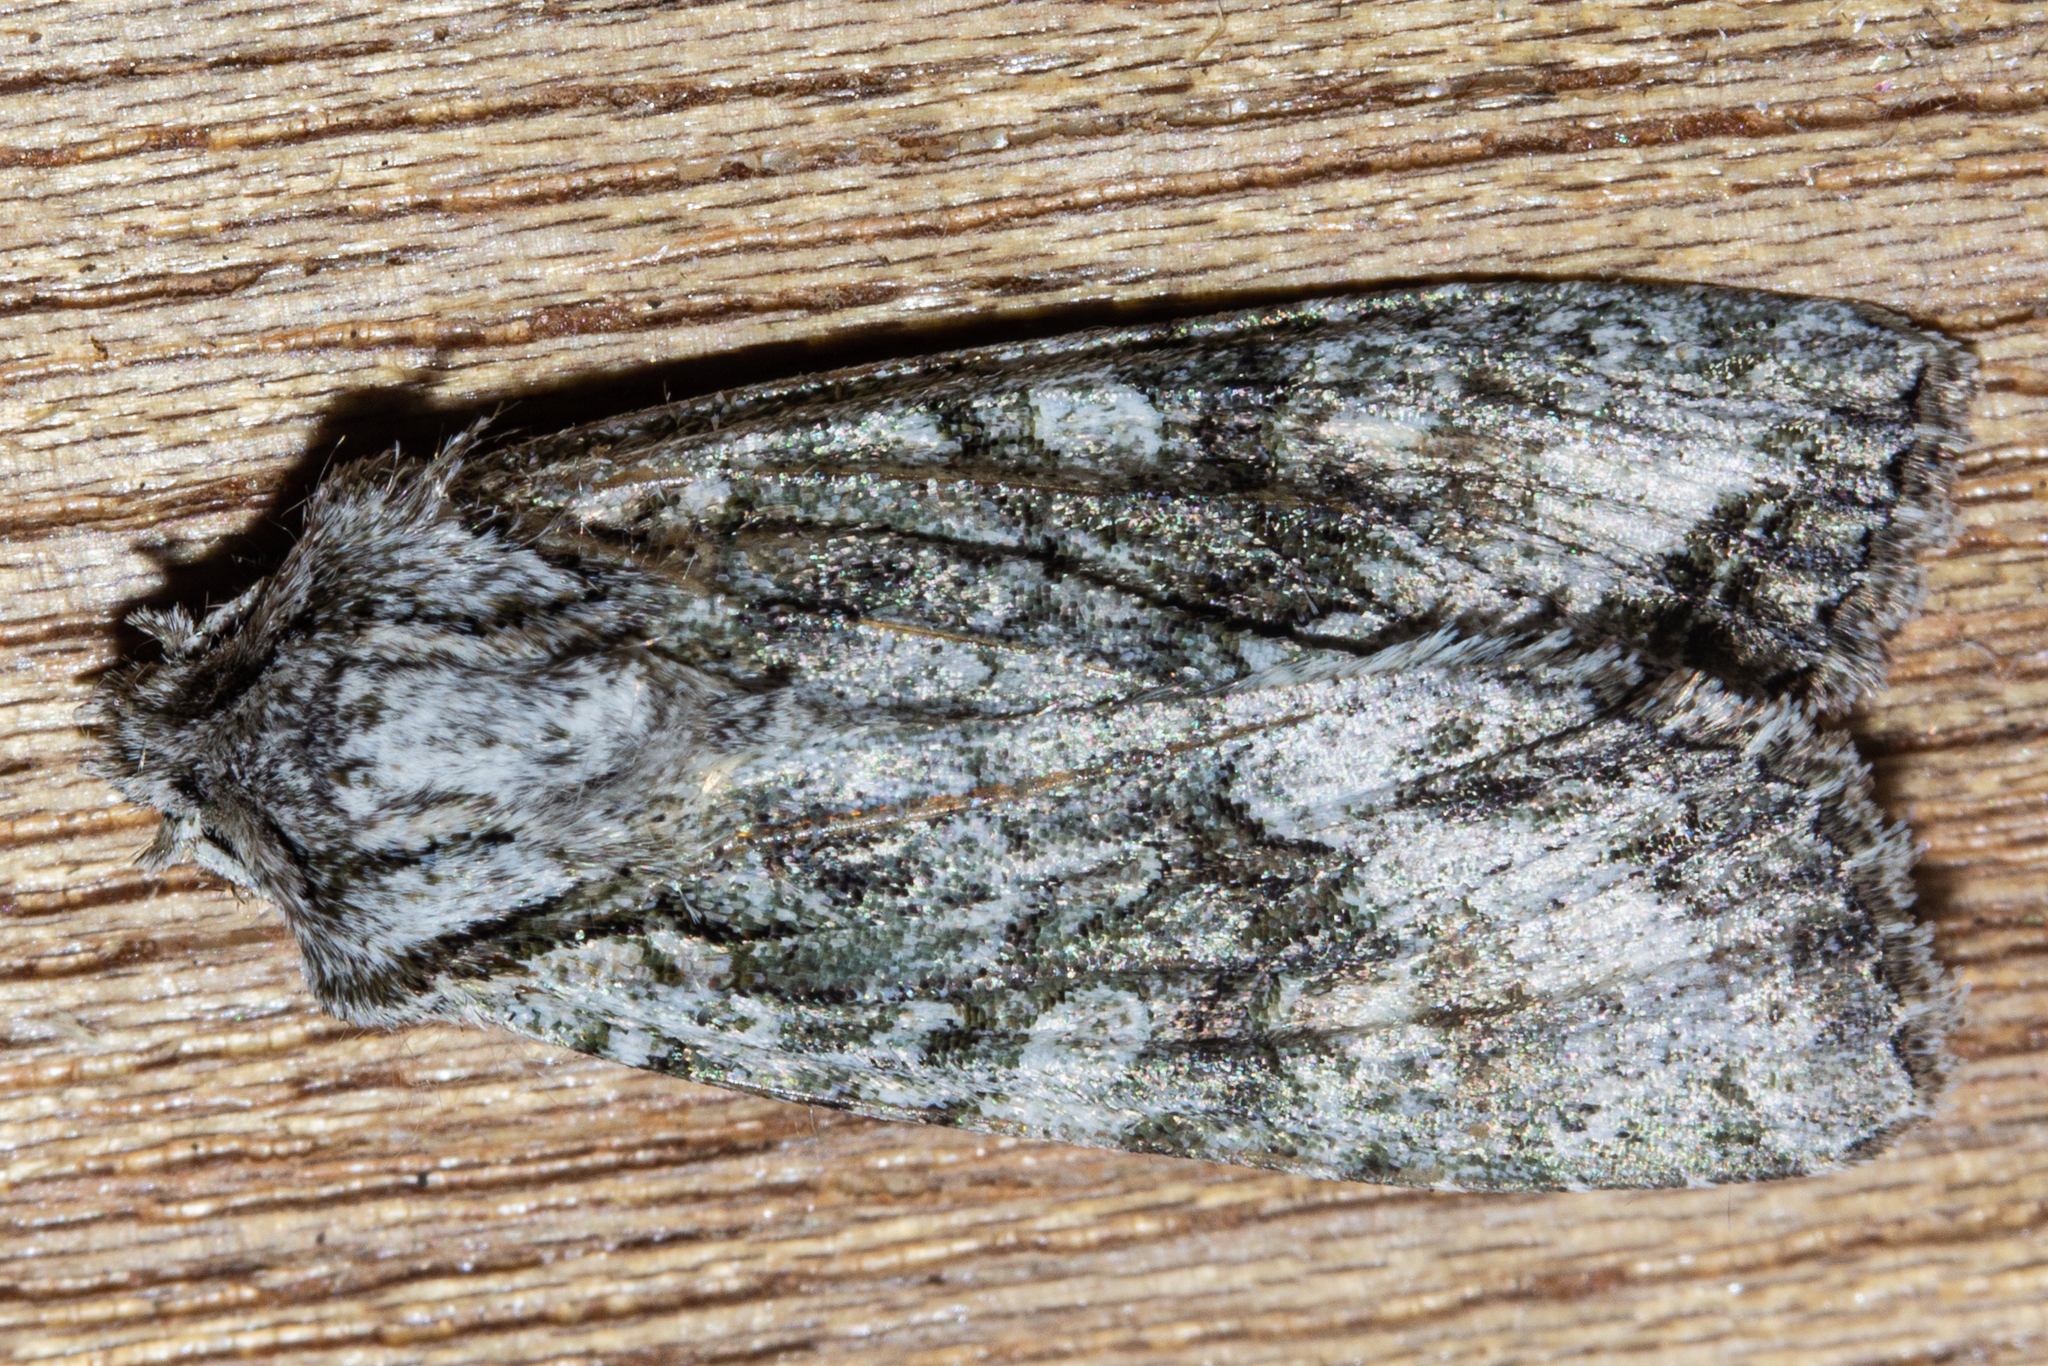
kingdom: Animalia
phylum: Arthropoda
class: Insecta
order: Lepidoptera
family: Noctuidae
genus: Ichneutica
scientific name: Ichneutica mutans
